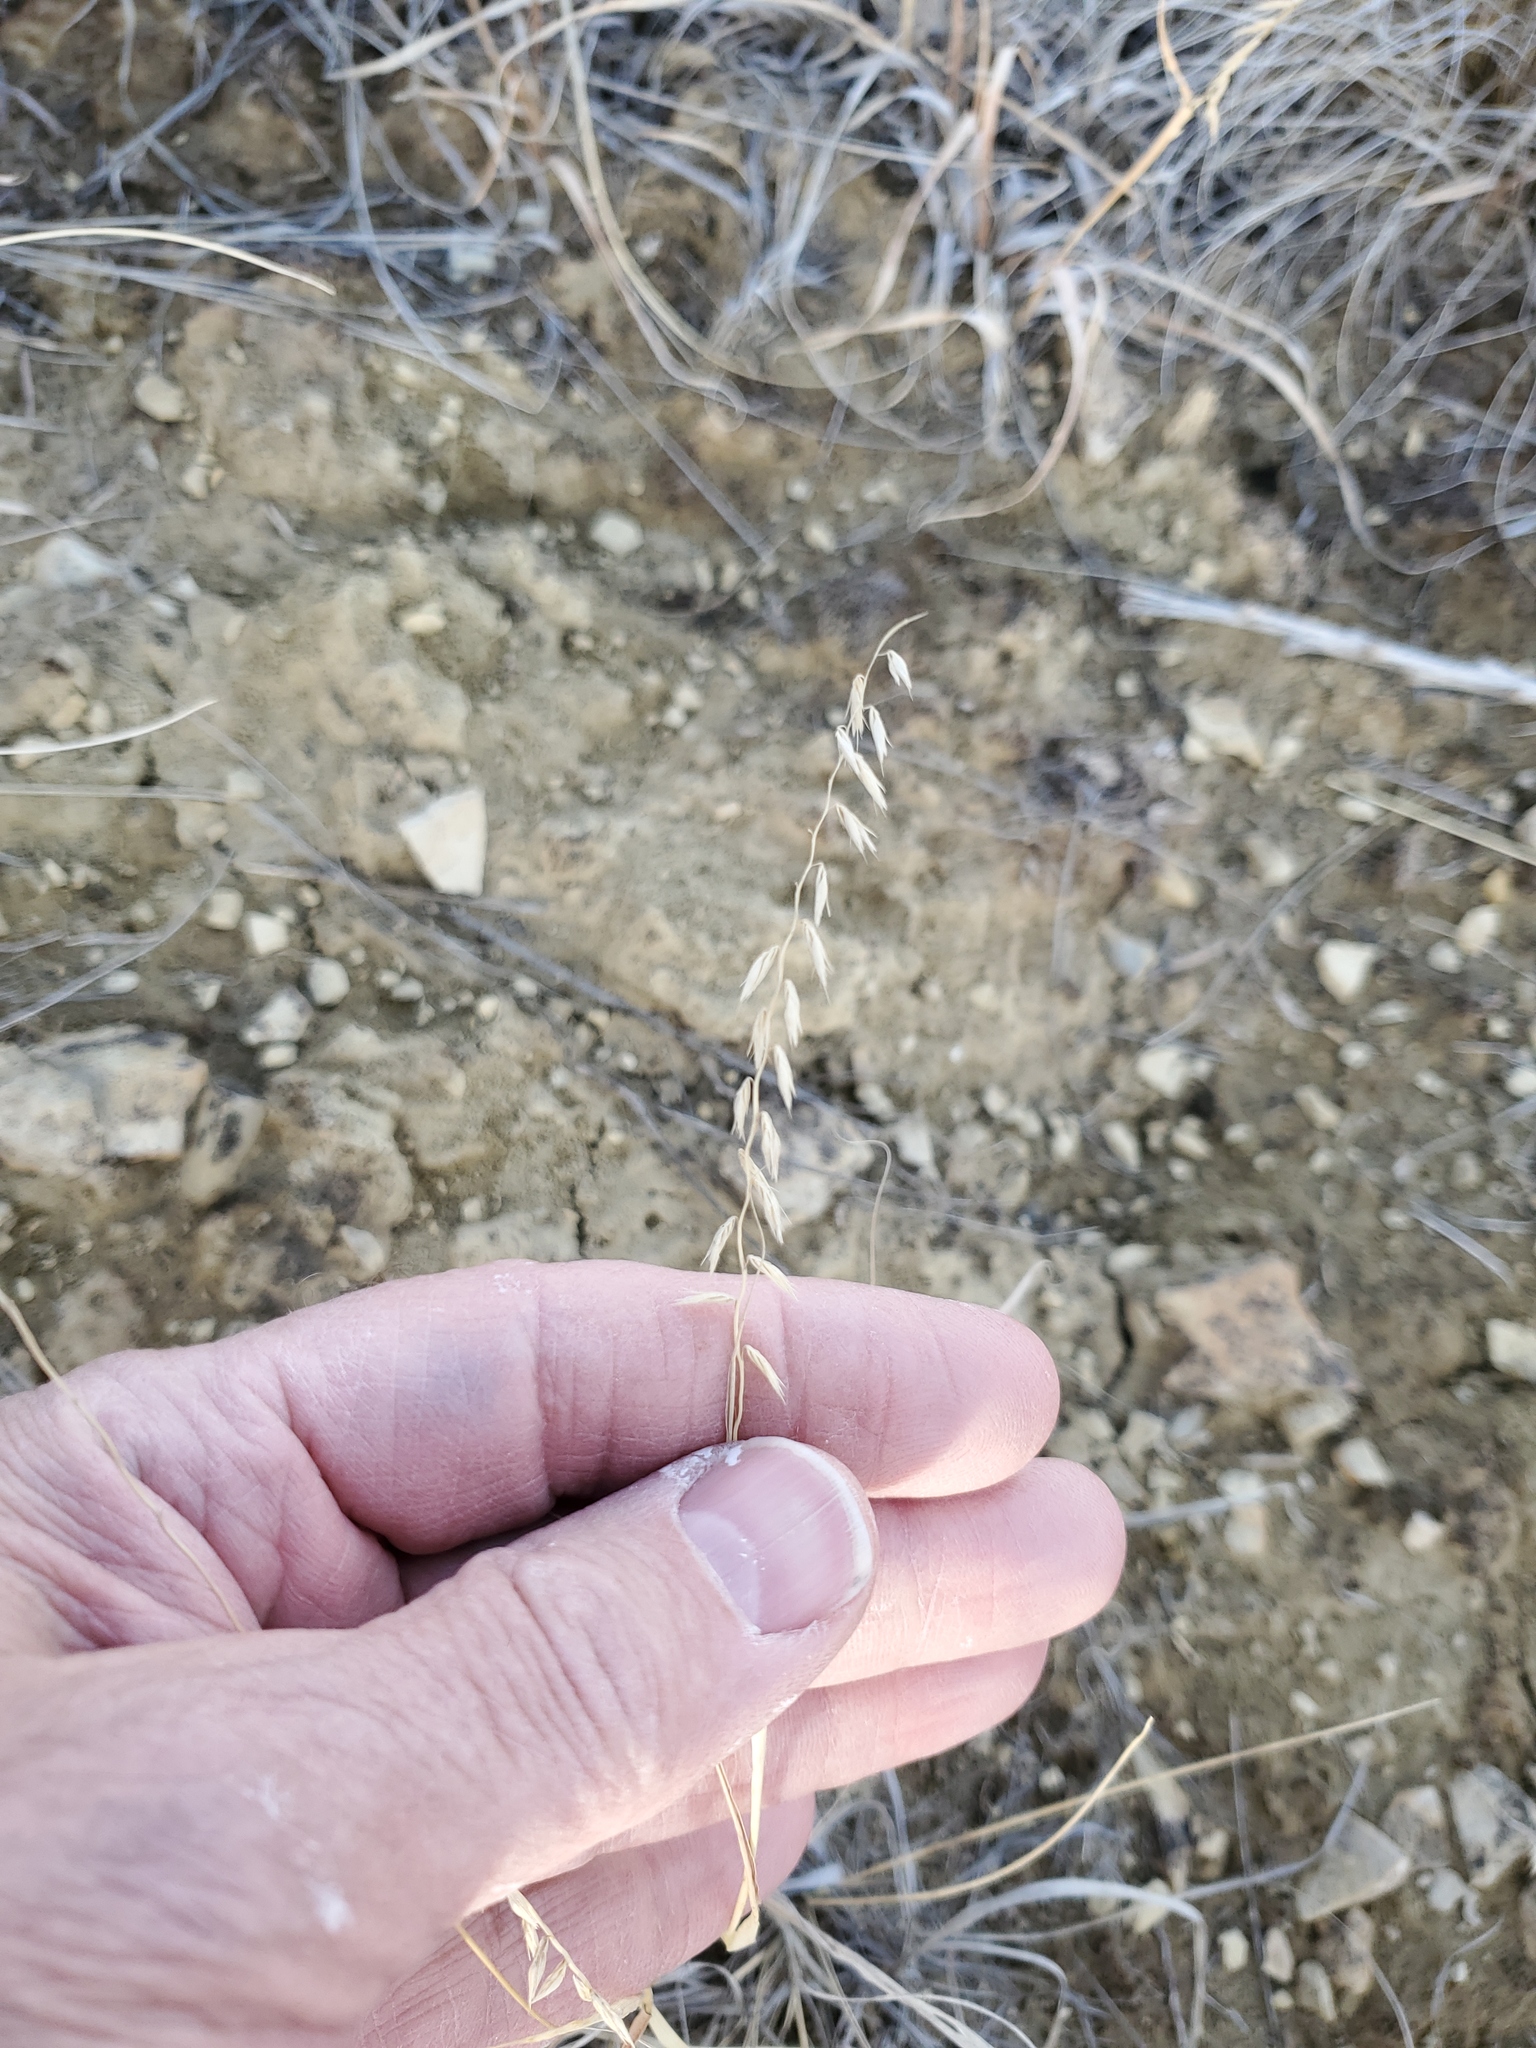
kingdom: Plantae
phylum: Tracheophyta
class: Liliopsida
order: Poales
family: Poaceae
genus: Bouteloua
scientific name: Bouteloua curtipendula
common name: Side-oats grama
